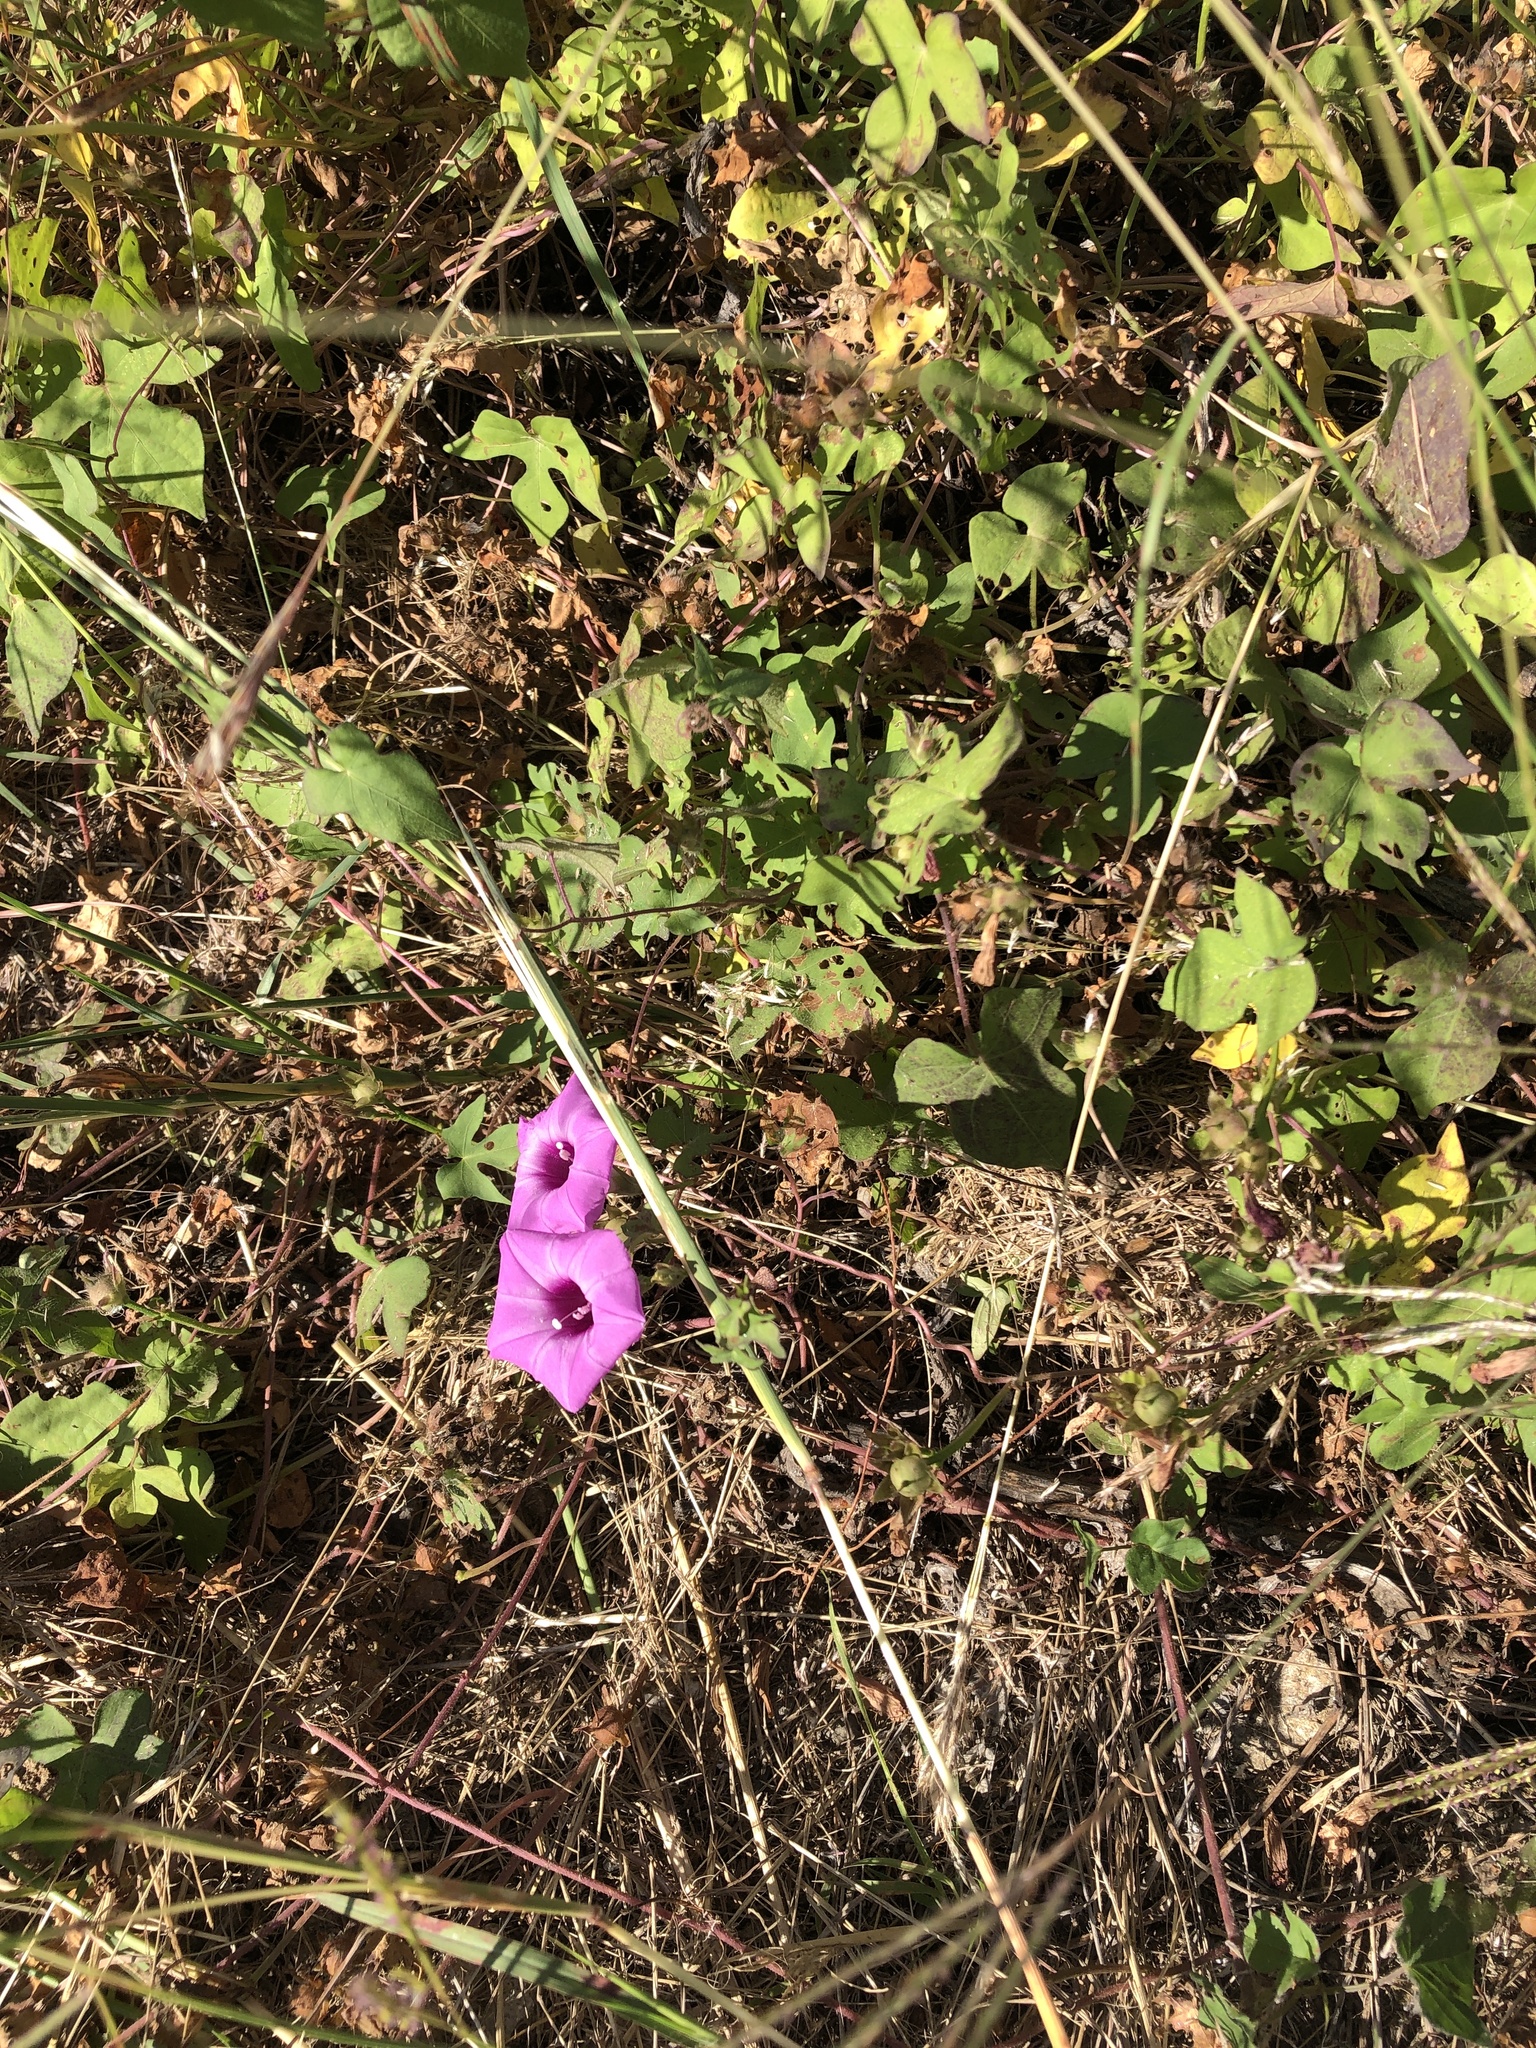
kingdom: Plantae
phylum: Tracheophyta
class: Magnoliopsida
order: Solanales
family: Convolvulaceae
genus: Ipomoea
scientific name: Ipomoea cordatotriloba
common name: Cotton morning glory
